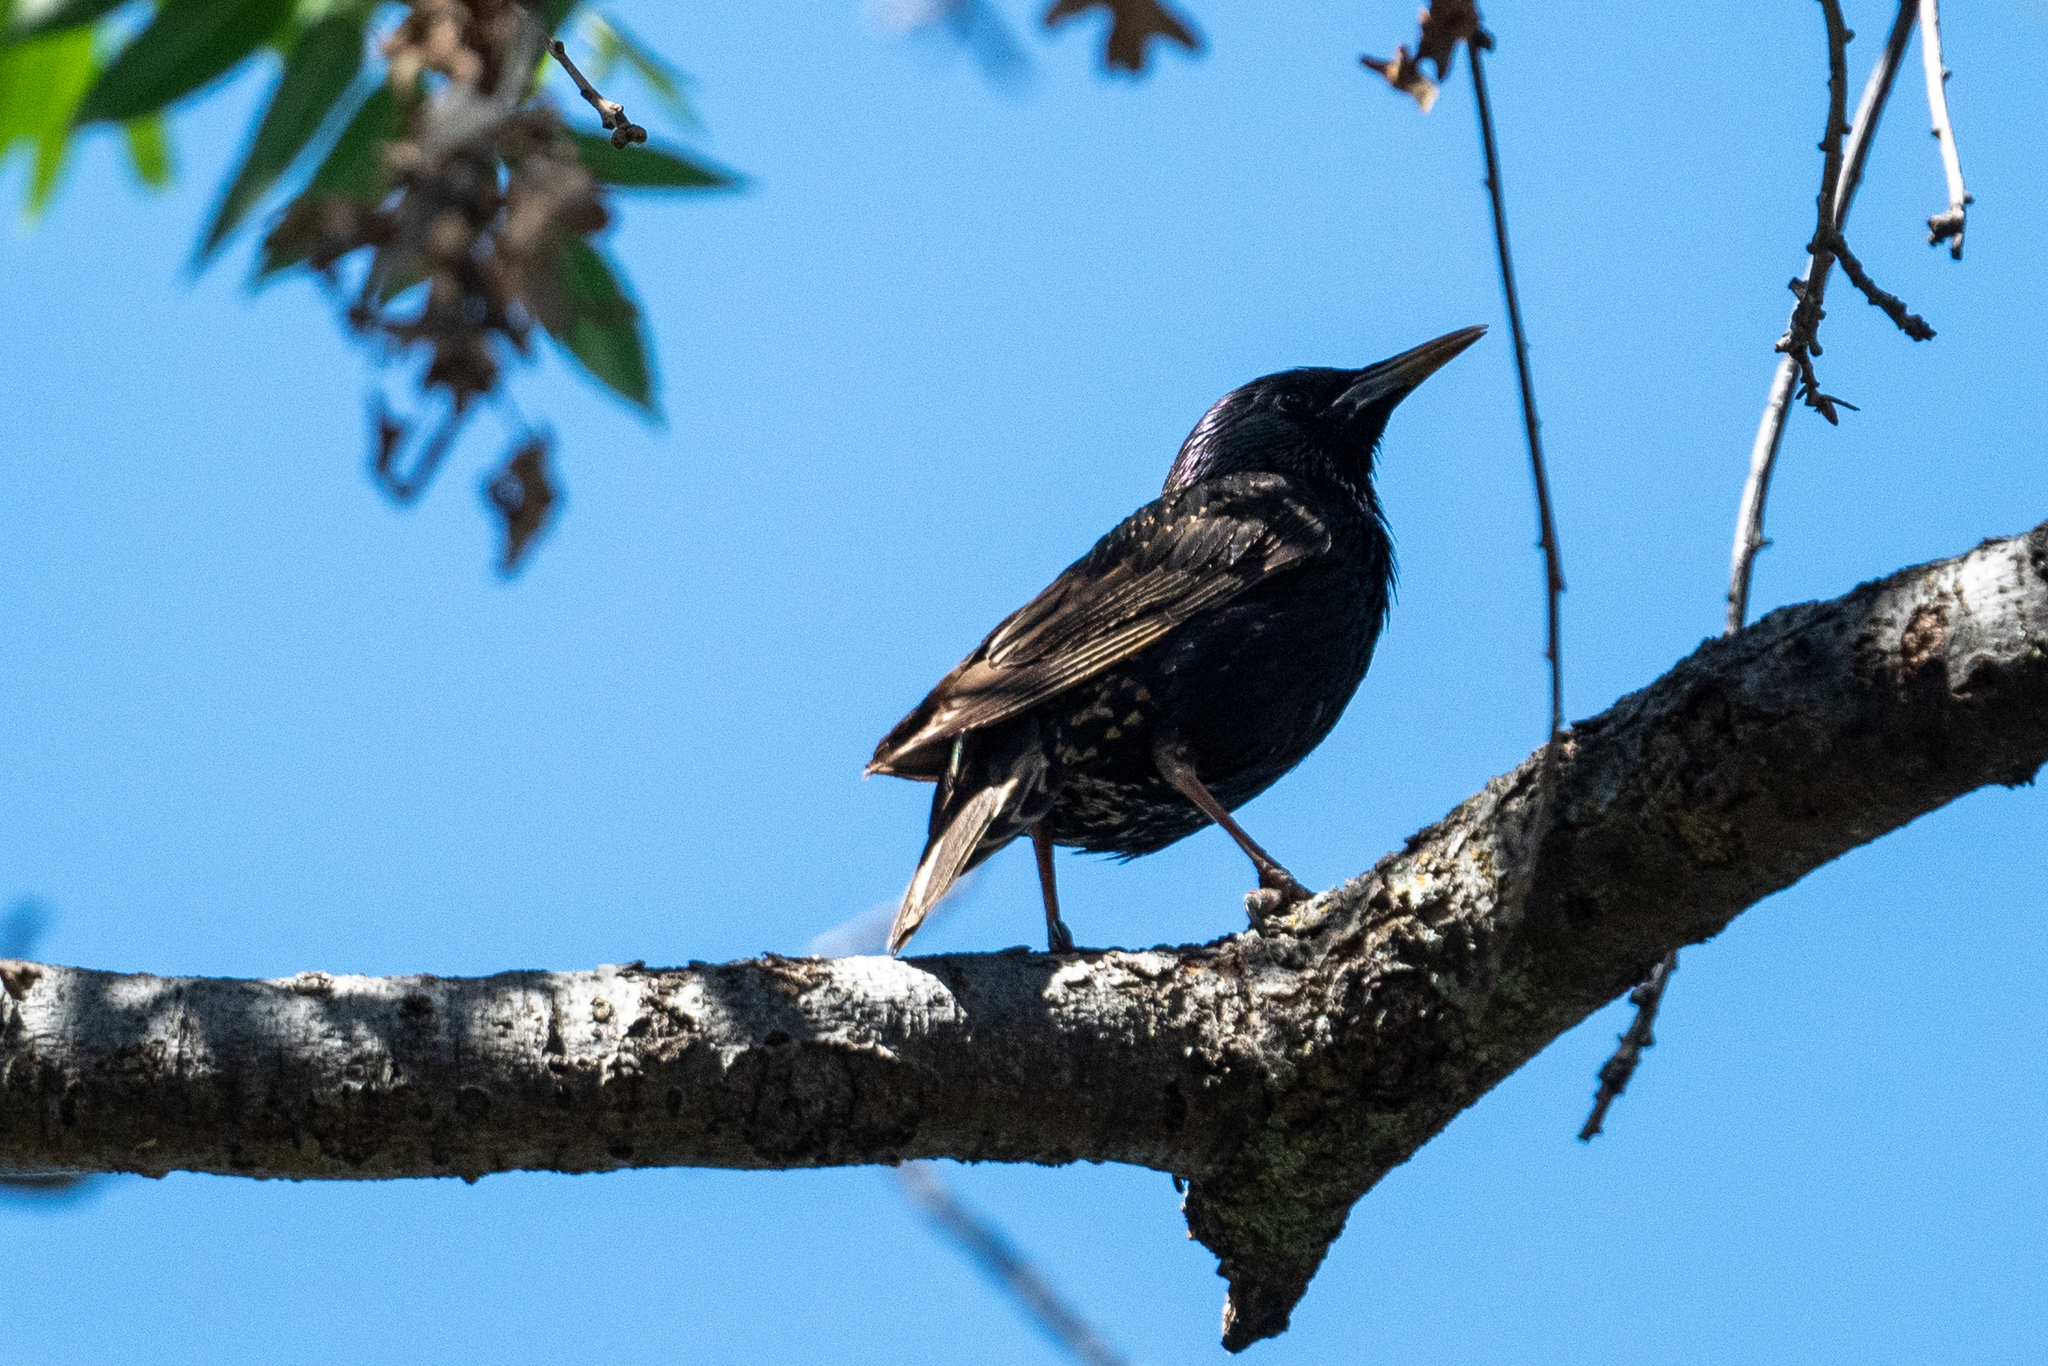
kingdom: Animalia
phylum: Chordata
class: Aves
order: Passeriformes
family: Sturnidae
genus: Sturnus
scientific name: Sturnus vulgaris
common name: Common starling
